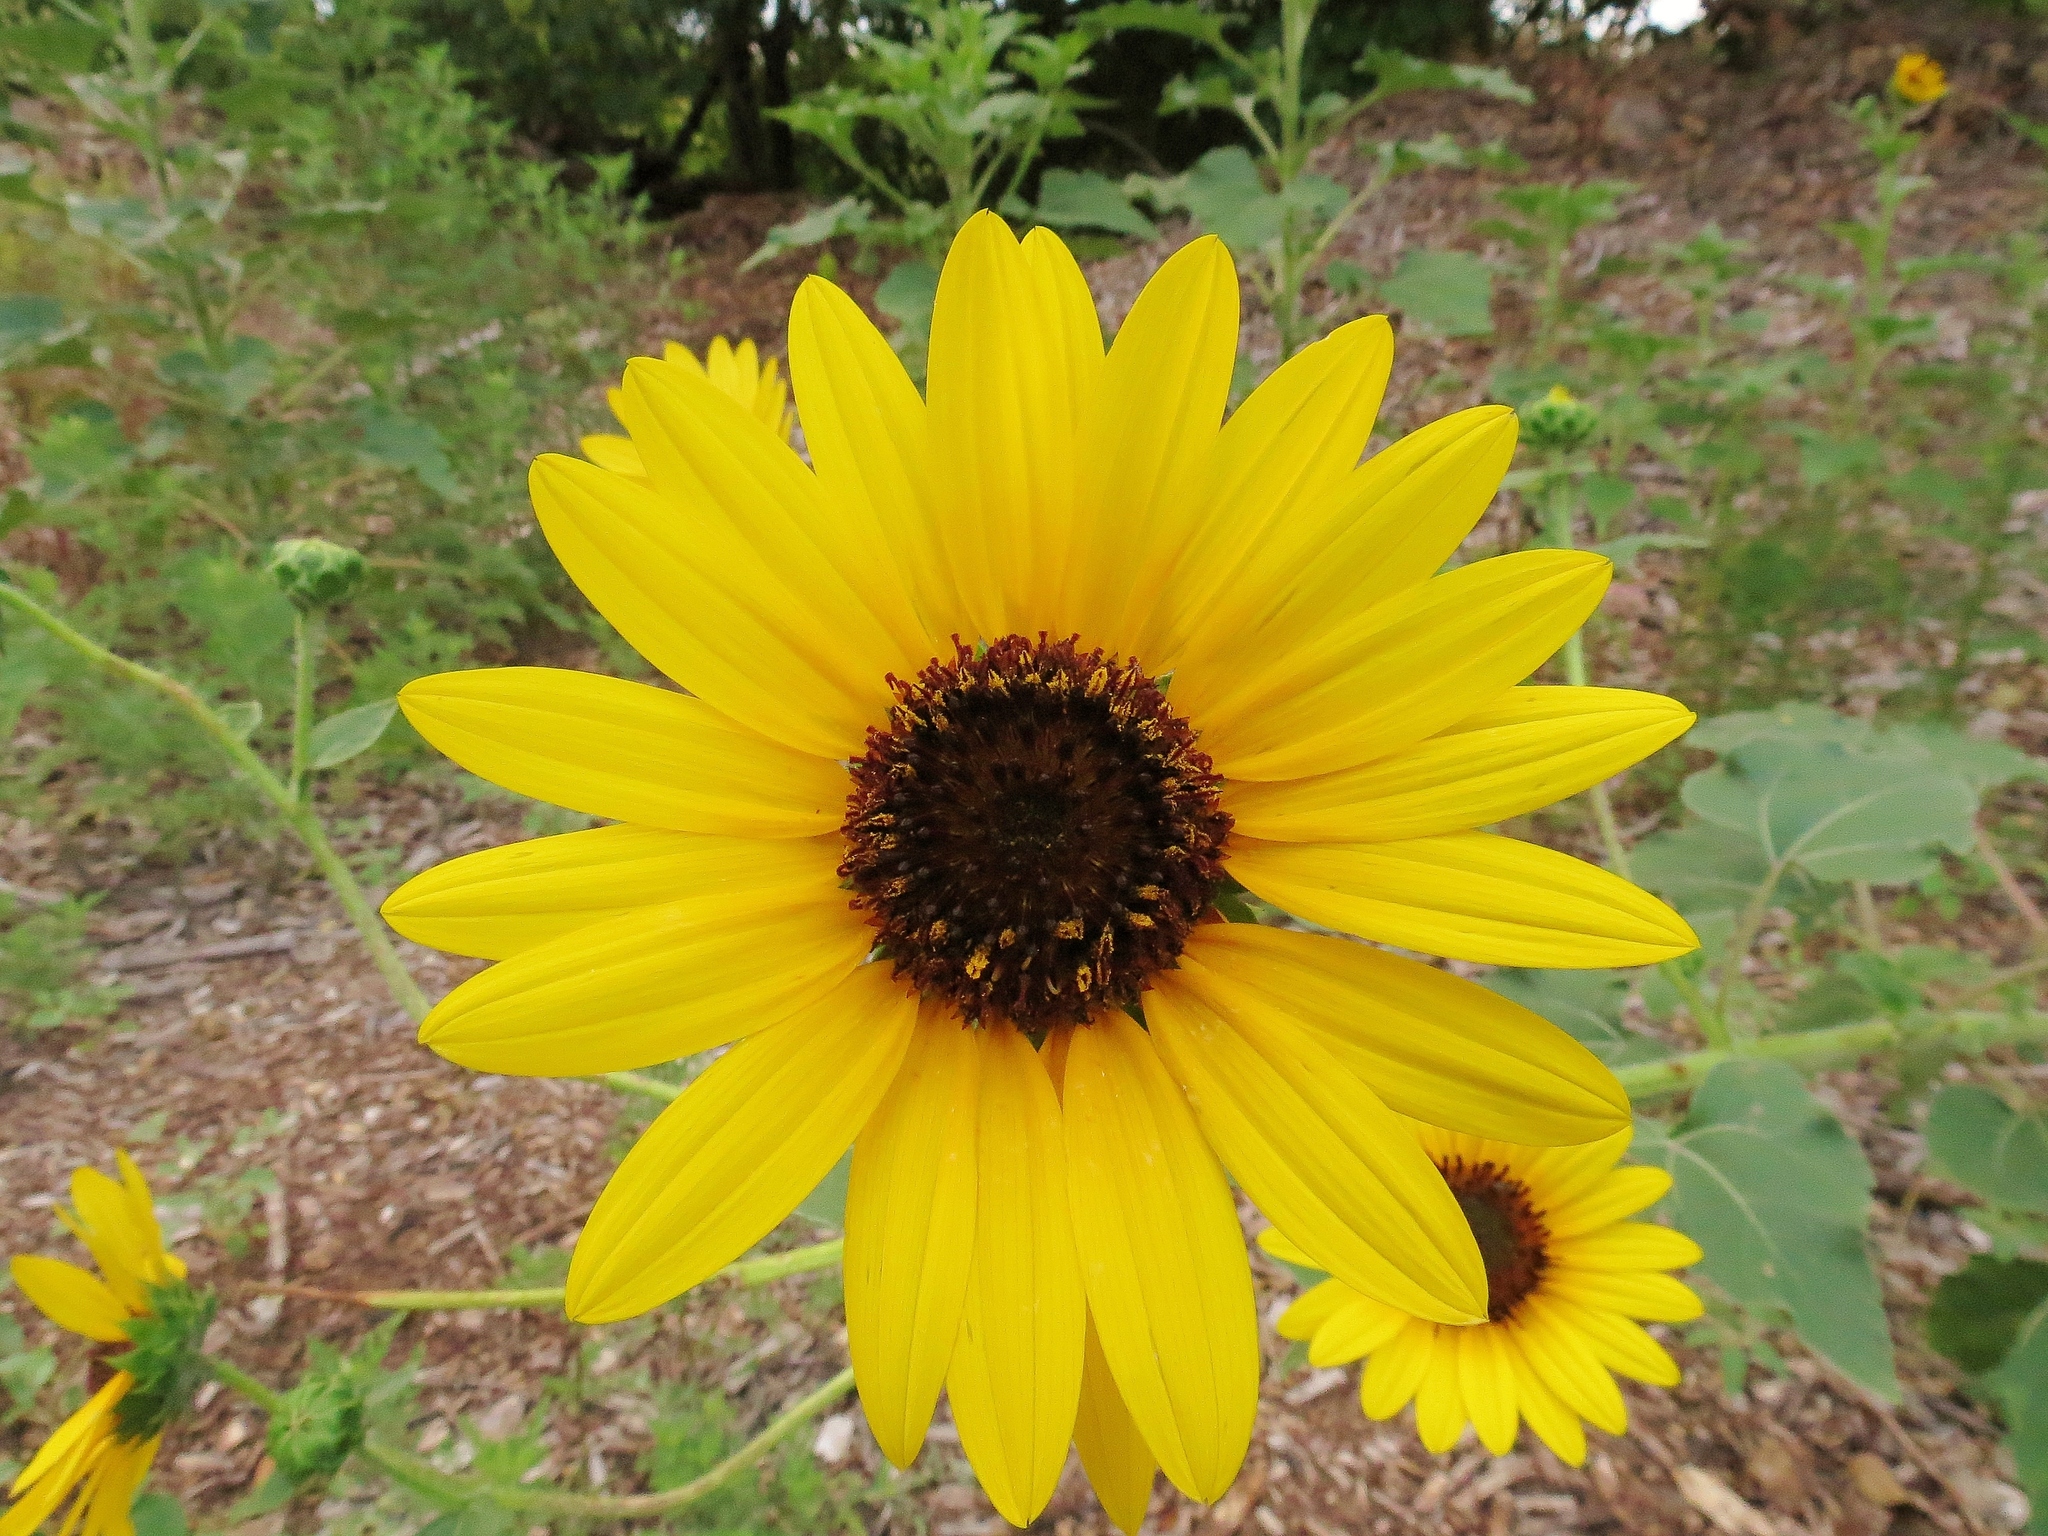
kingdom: Plantae
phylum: Tracheophyta
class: Magnoliopsida
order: Asterales
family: Asteraceae
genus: Helianthus
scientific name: Helianthus annuus
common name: Sunflower
